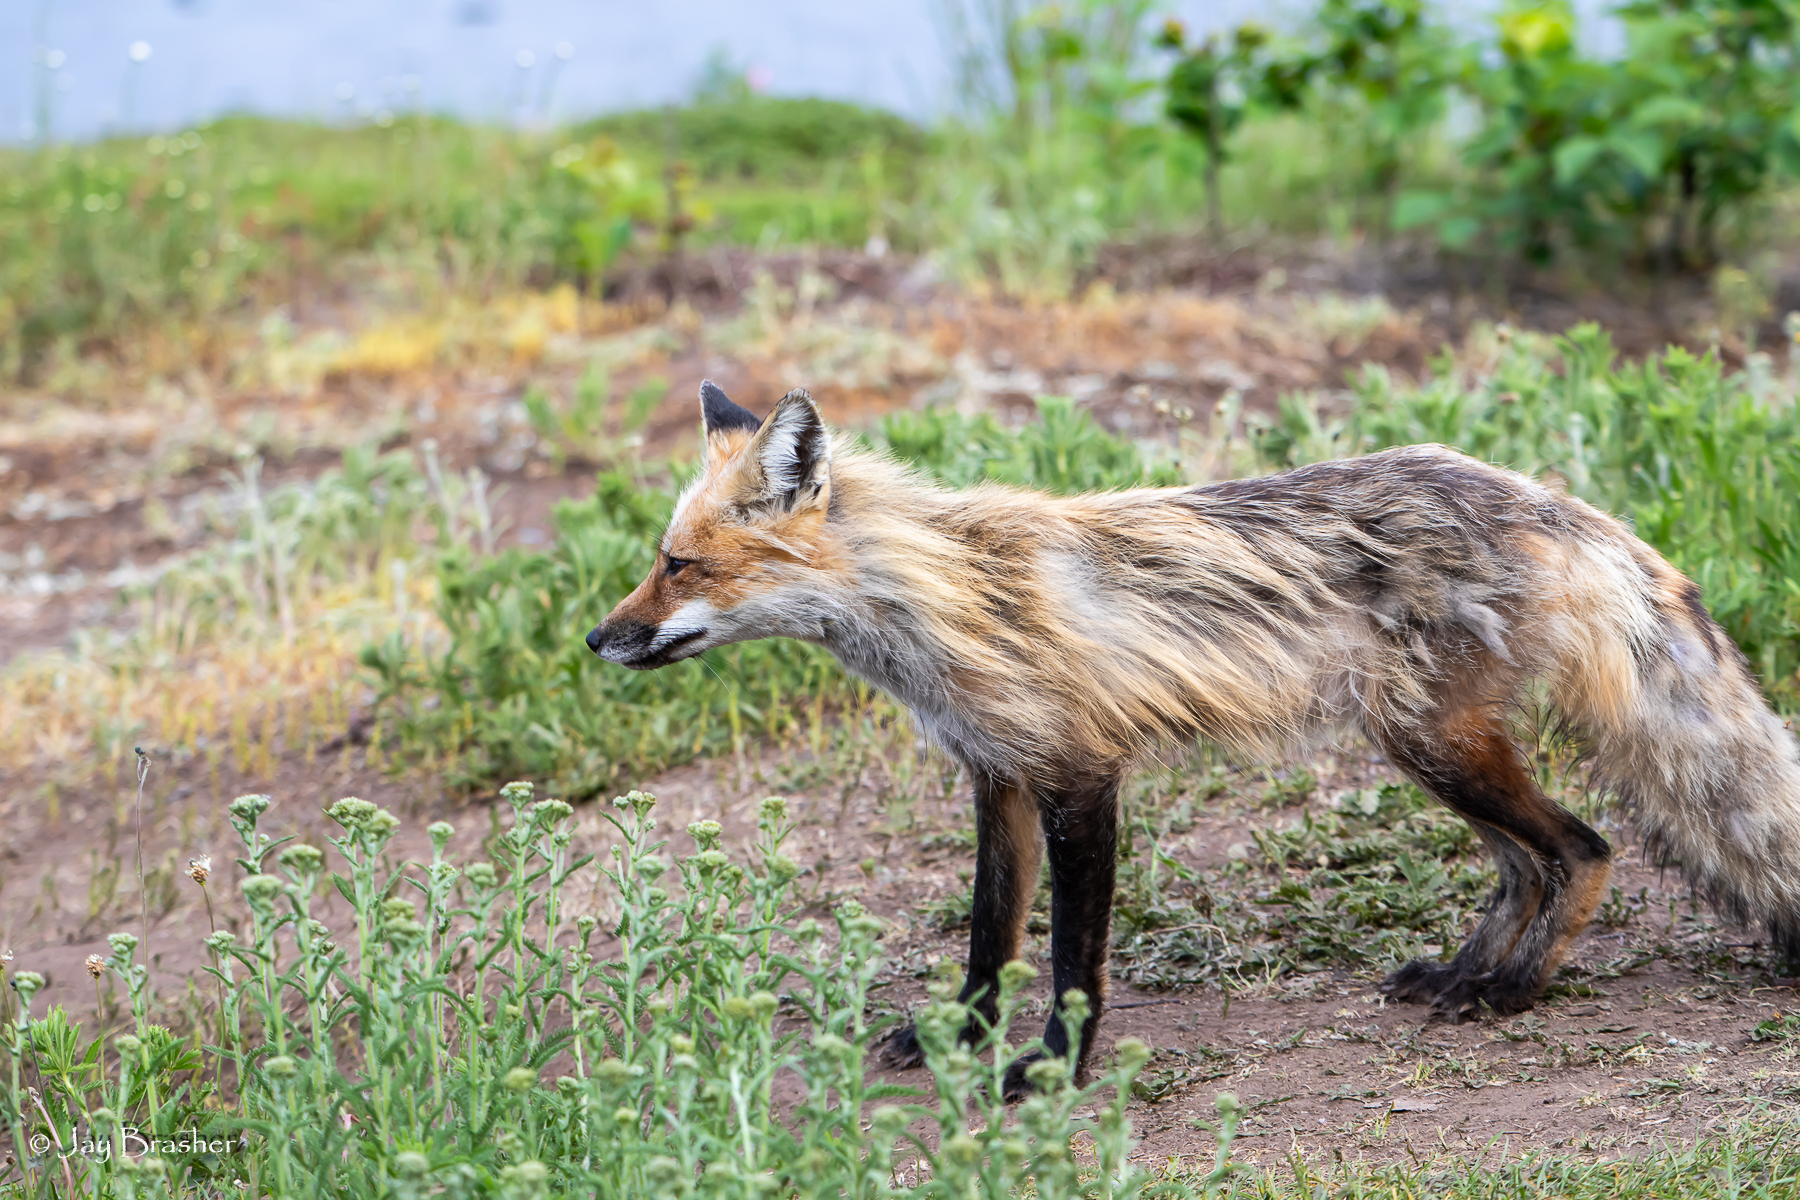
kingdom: Animalia
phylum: Chordata
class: Mammalia
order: Carnivora
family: Canidae
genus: Vulpes
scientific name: Vulpes vulpes
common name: Red fox
